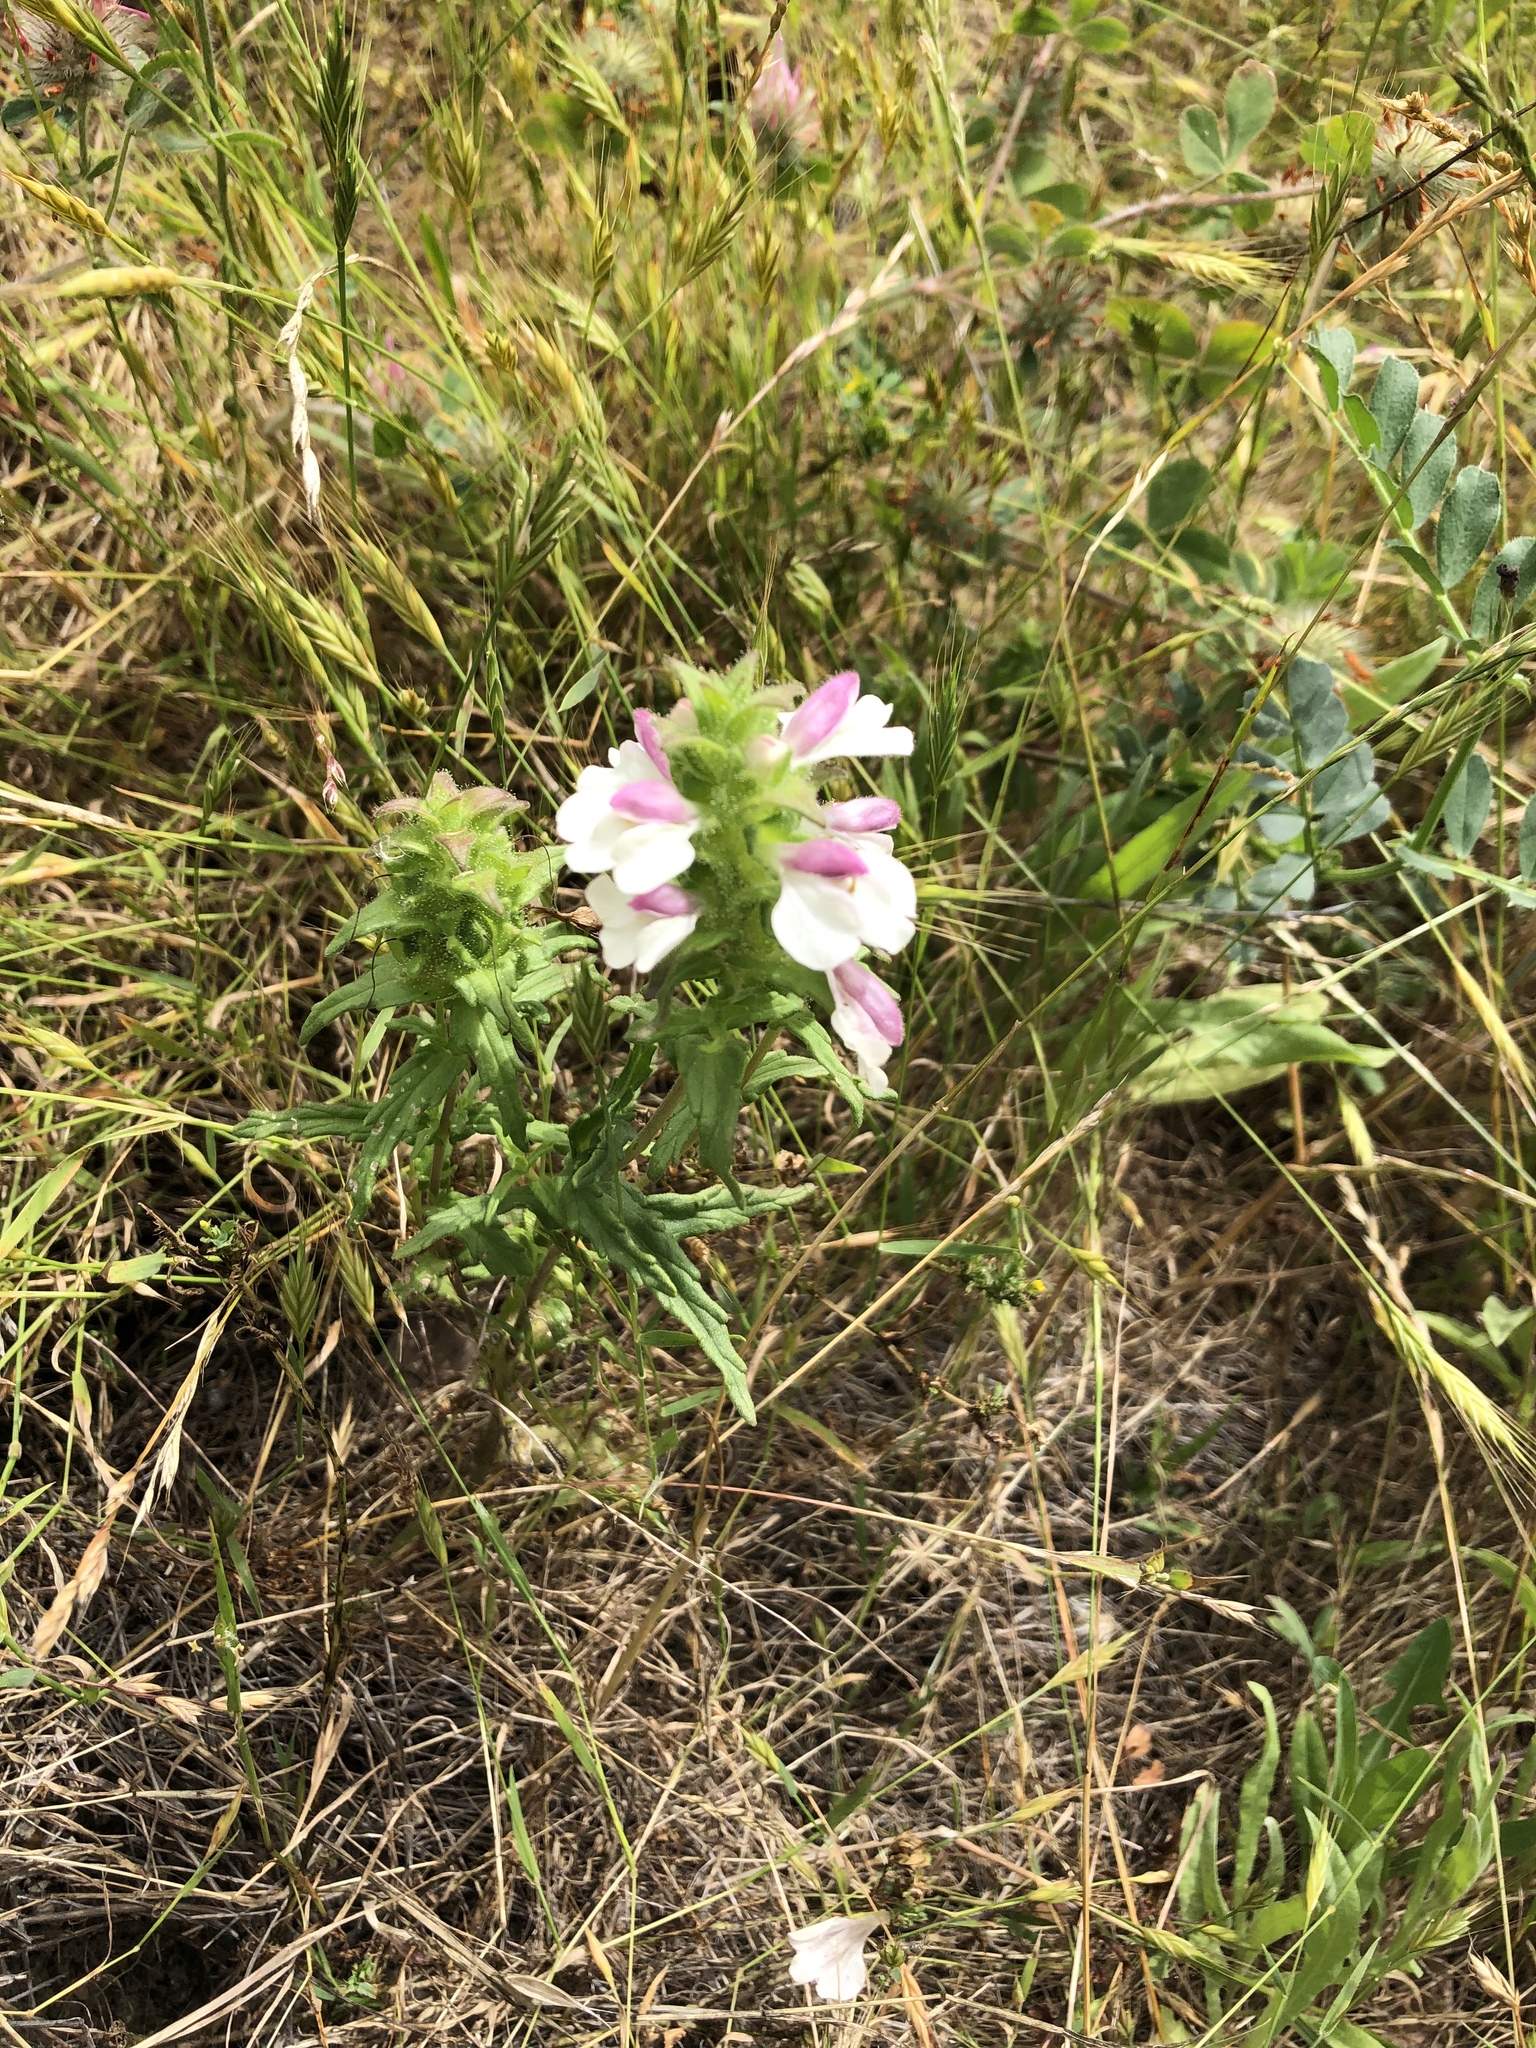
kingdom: Plantae
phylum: Tracheophyta
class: Magnoliopsida
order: Lamiales
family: Orobanchaceae
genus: Bellardia
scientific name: Bellardia trixago
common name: Mediterranean lineseed
